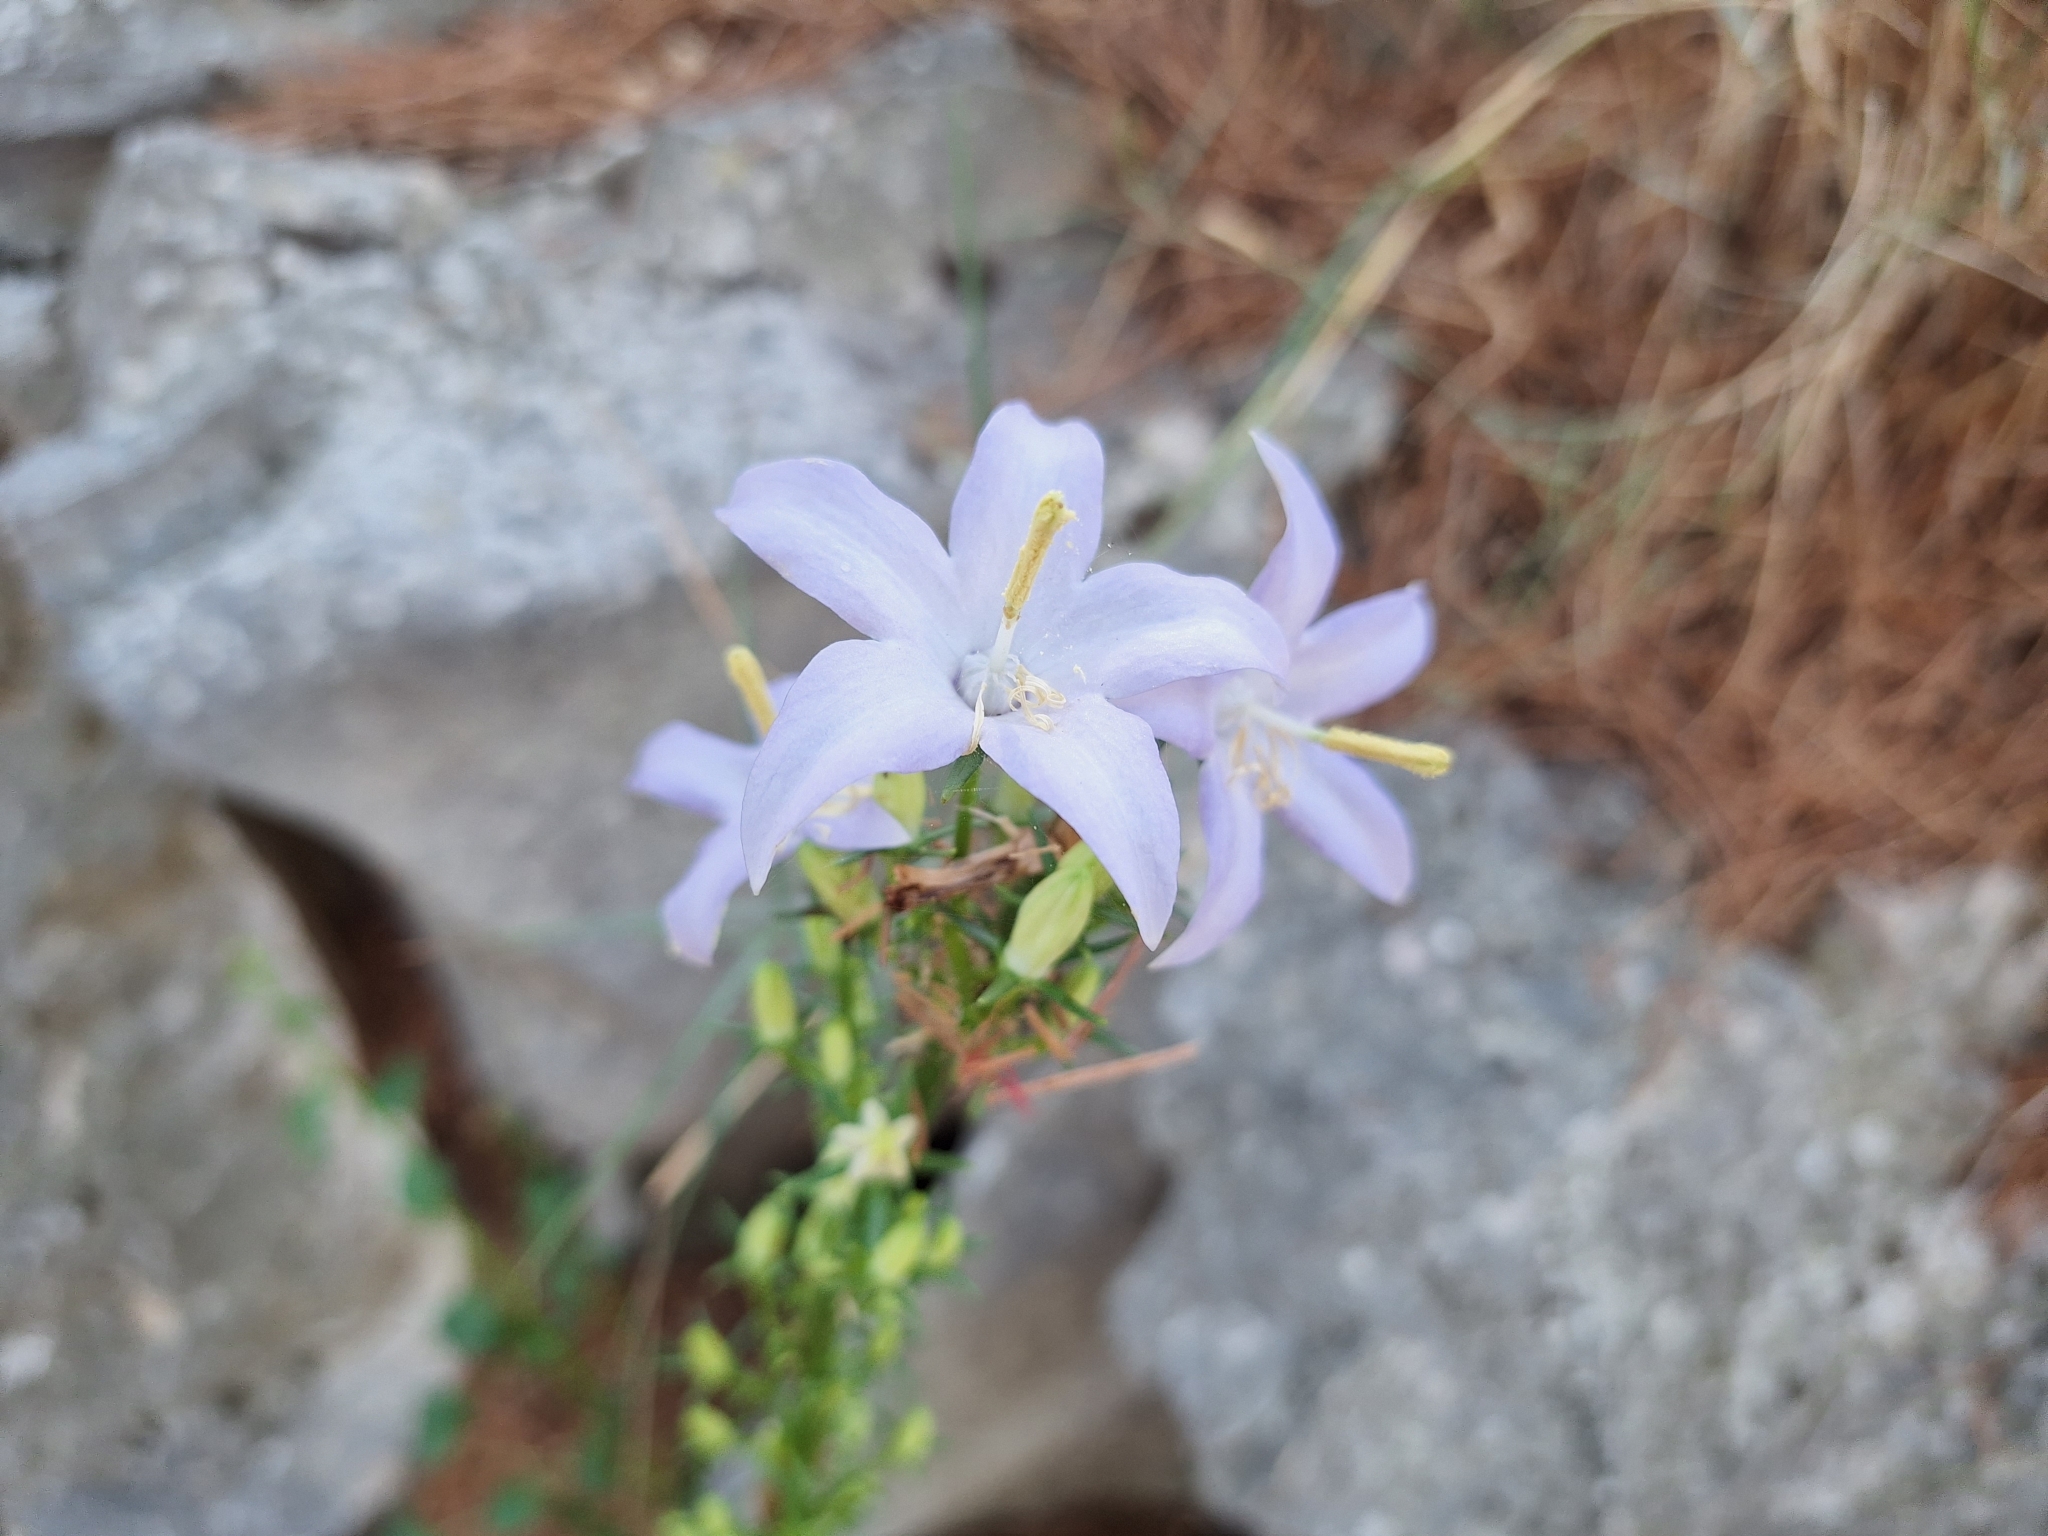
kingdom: Plantae
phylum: Tracheophyta
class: Magnoliopsida
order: Asterales
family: Campanulaceae
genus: Campanula
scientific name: Campanula pyramidalis
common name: Chimney bellflower
